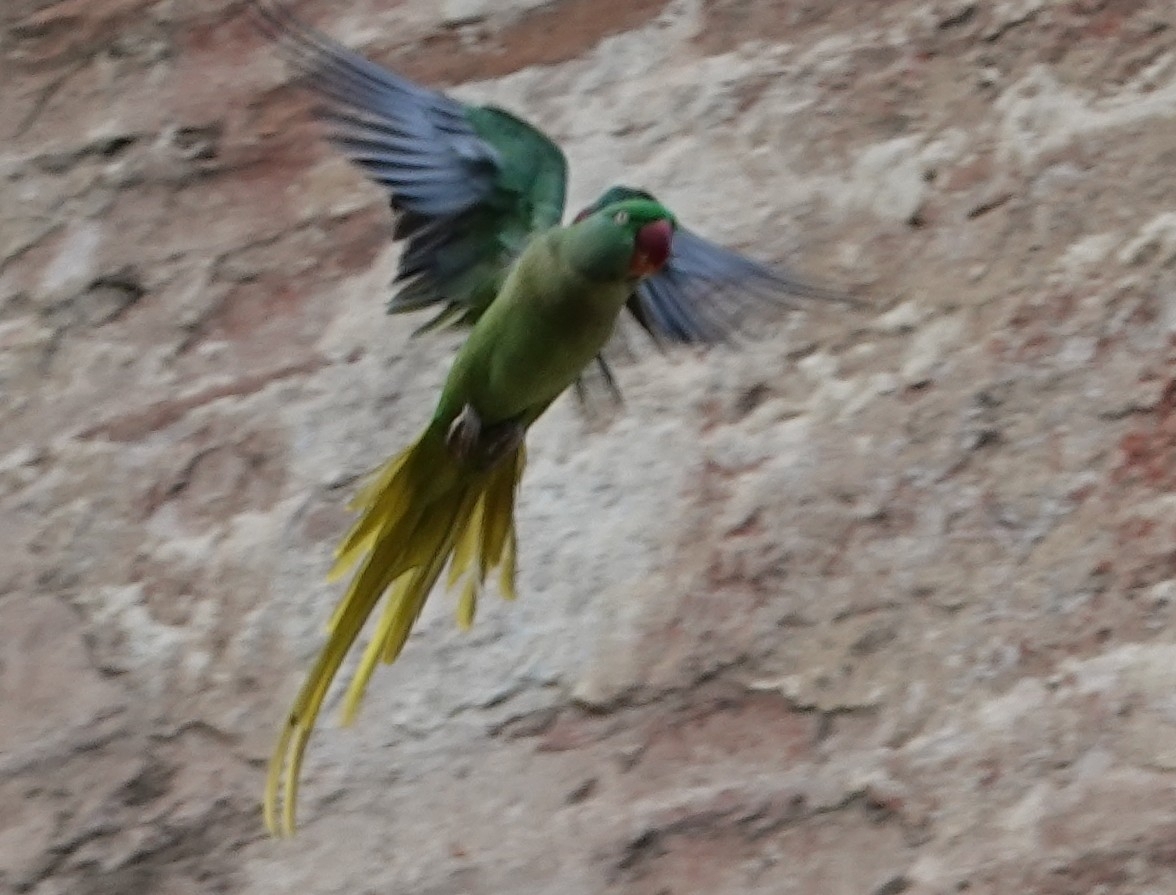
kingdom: Animalia
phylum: Chordata
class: Aves
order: Psittaciformes
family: Psittacidae
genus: Psittacula
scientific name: Psittacula eupatria
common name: Alexandrine parakeet
